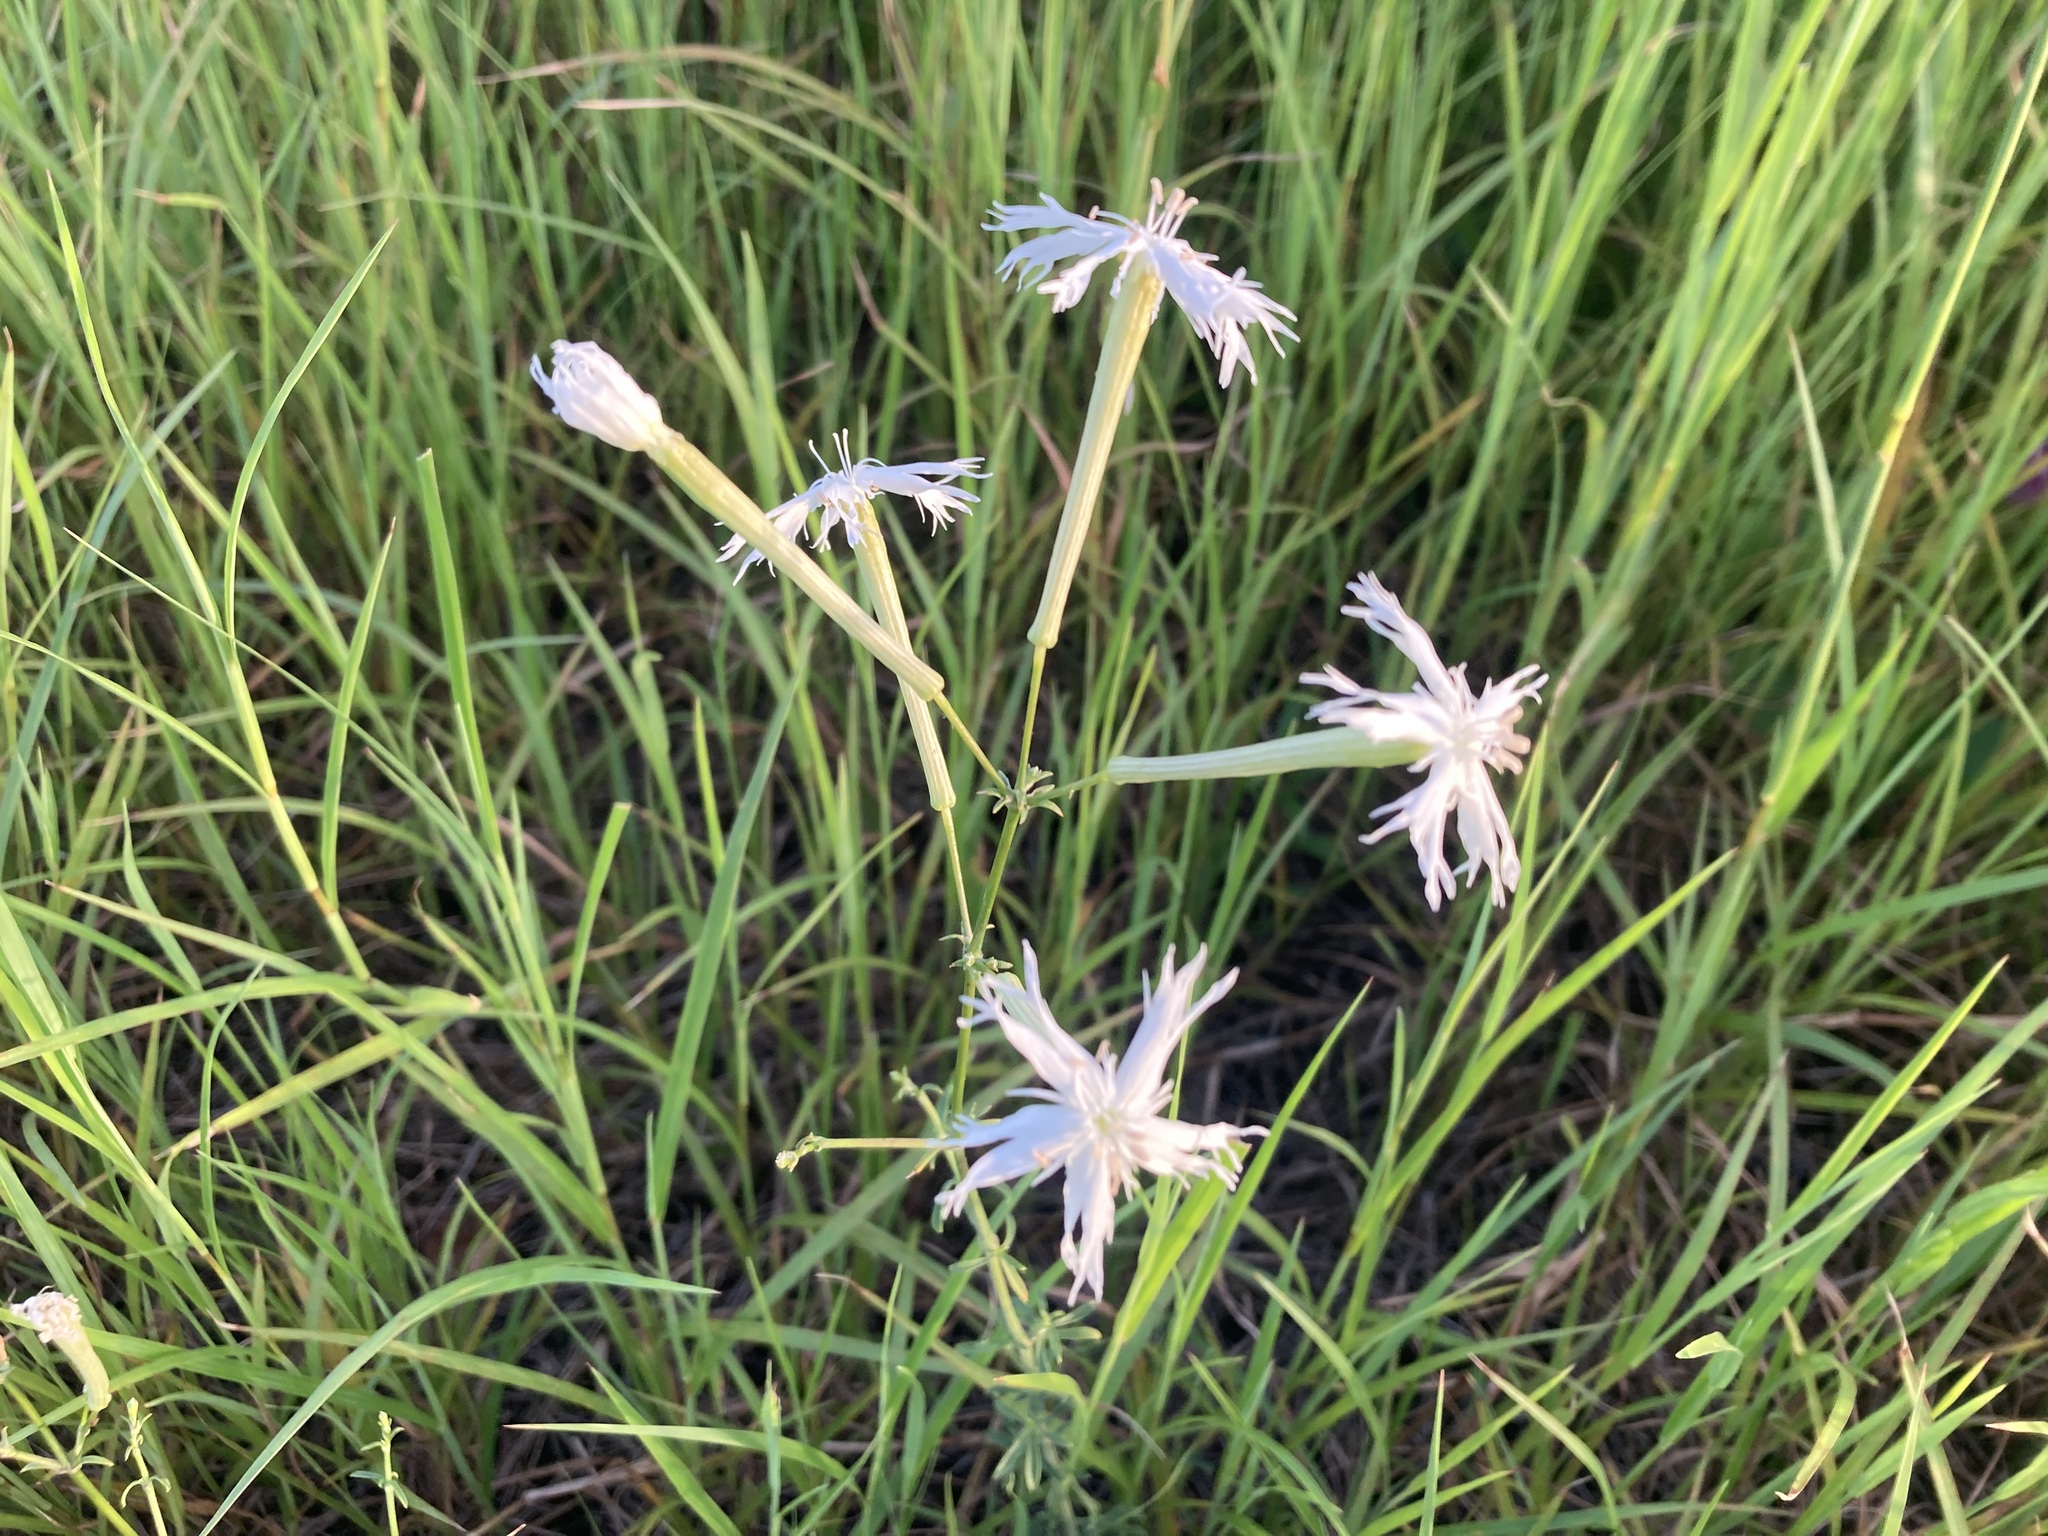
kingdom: Plantae
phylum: Tracheophyta
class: Magnoliopsida
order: Caryophyllales
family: Caryophyllaceae
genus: Silene
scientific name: Silene fissipetala
